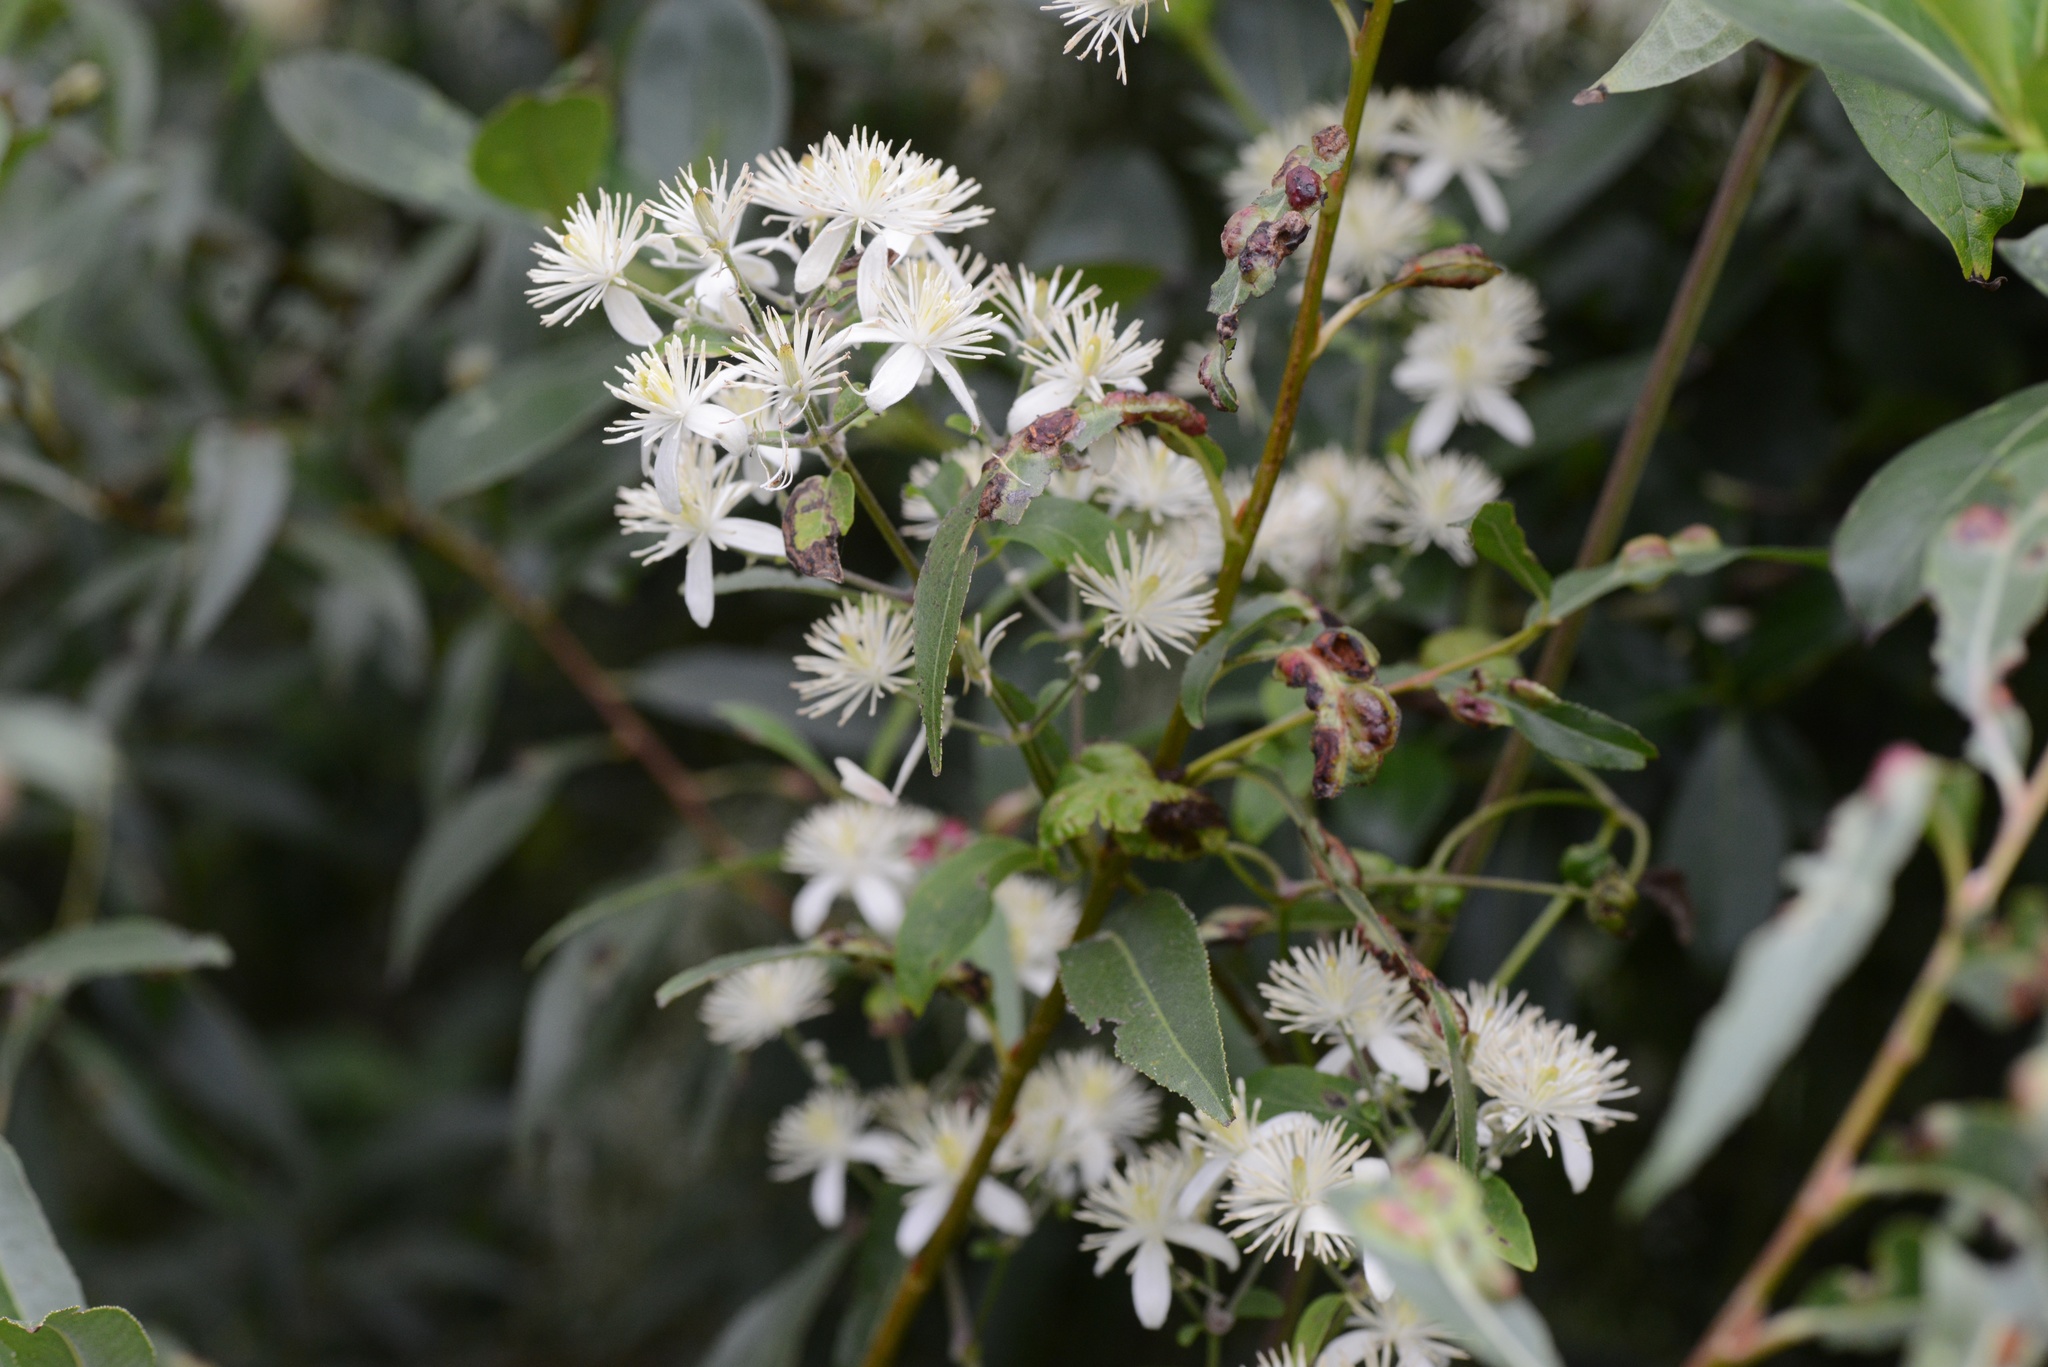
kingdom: Plantae
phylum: Tracheophyta
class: Magnoliopsida
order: Ranunculales
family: Ranunculaceae
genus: Clematis
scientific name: Clematis vitalba
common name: Evergreen clematis
